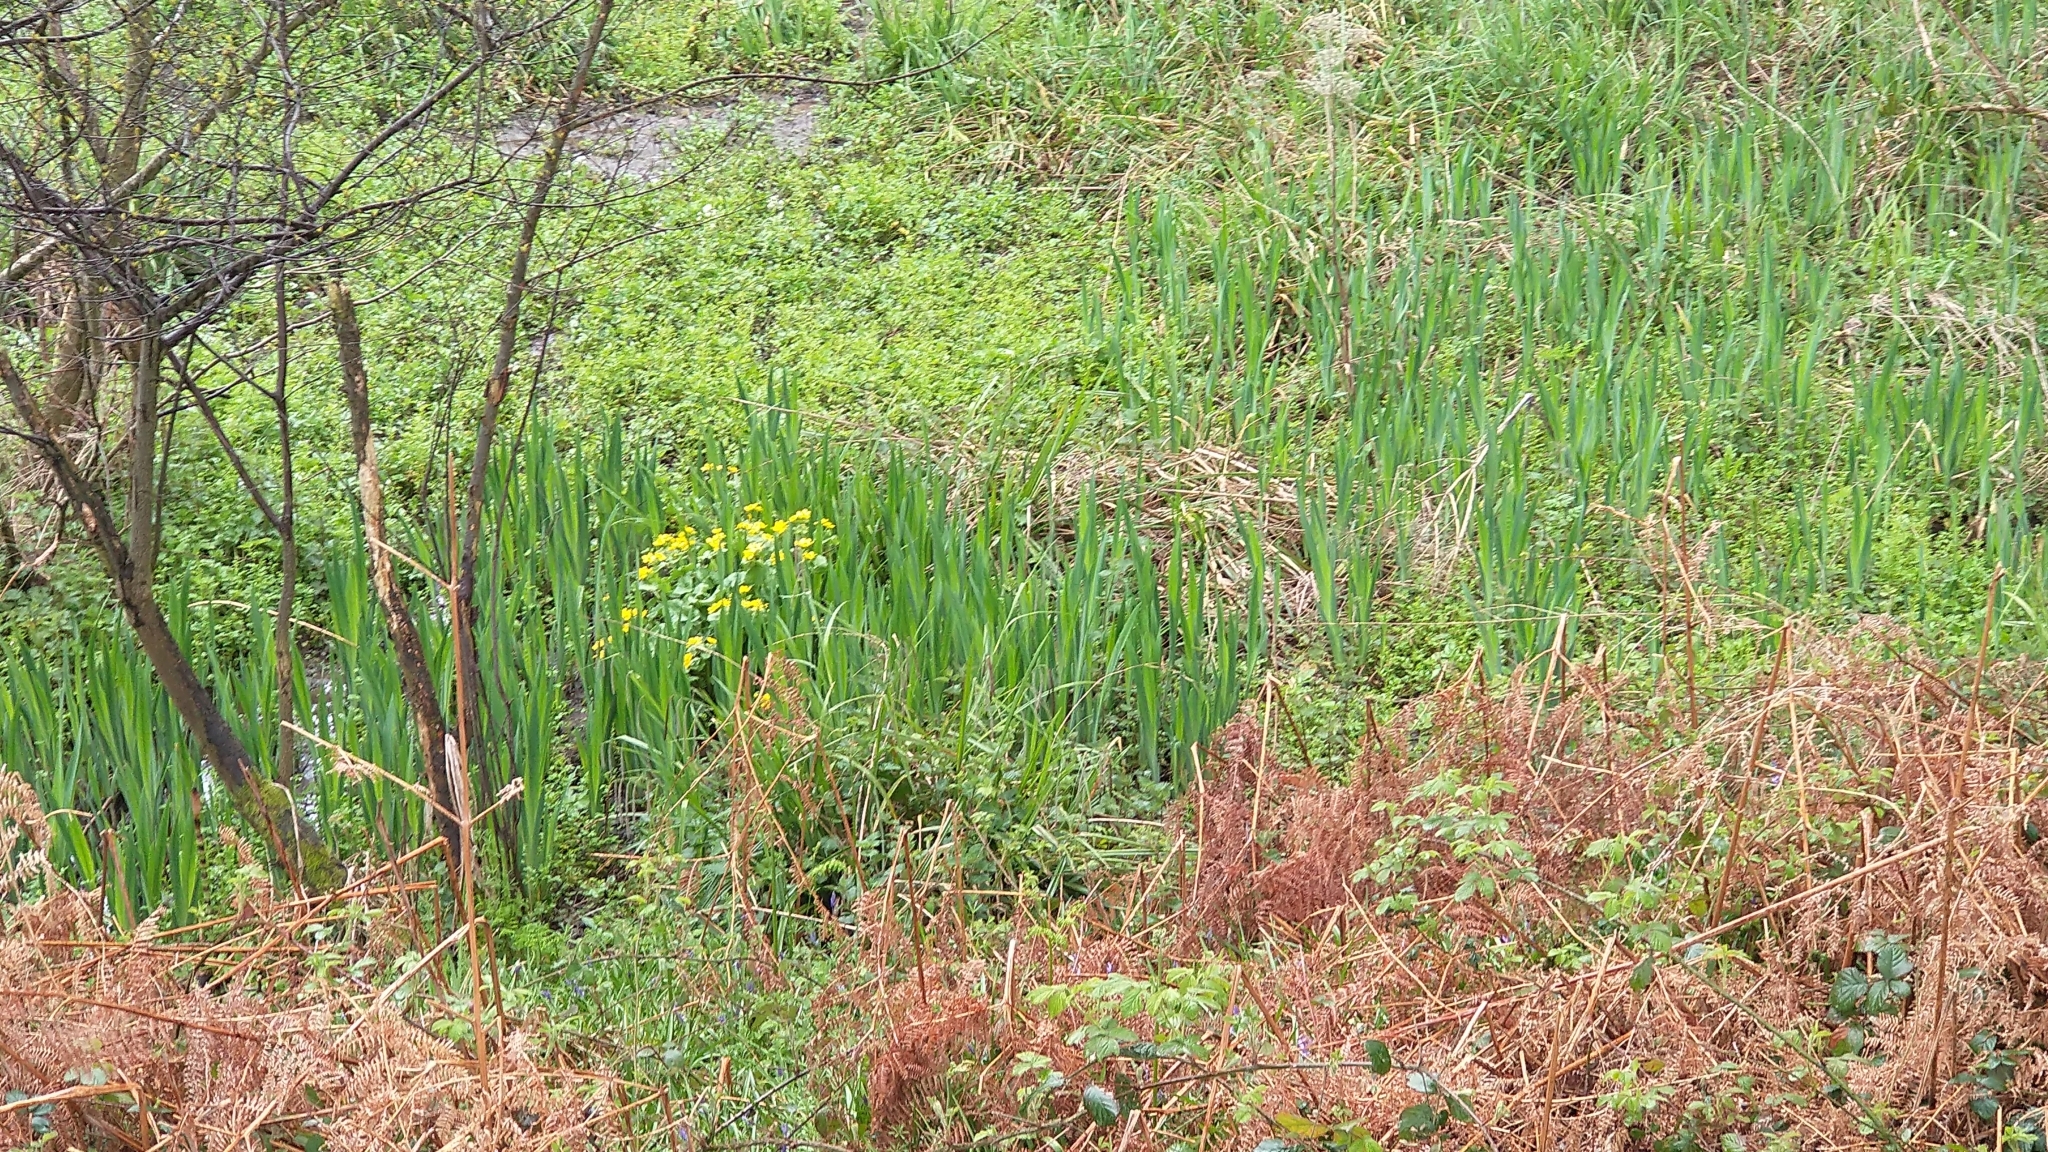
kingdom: Plantae
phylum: Tracheophyta
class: Magnoliopsida
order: Ranunculales
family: Ranunculaceae
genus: Caltha
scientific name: Caltha palustris
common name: Marsh marigold
